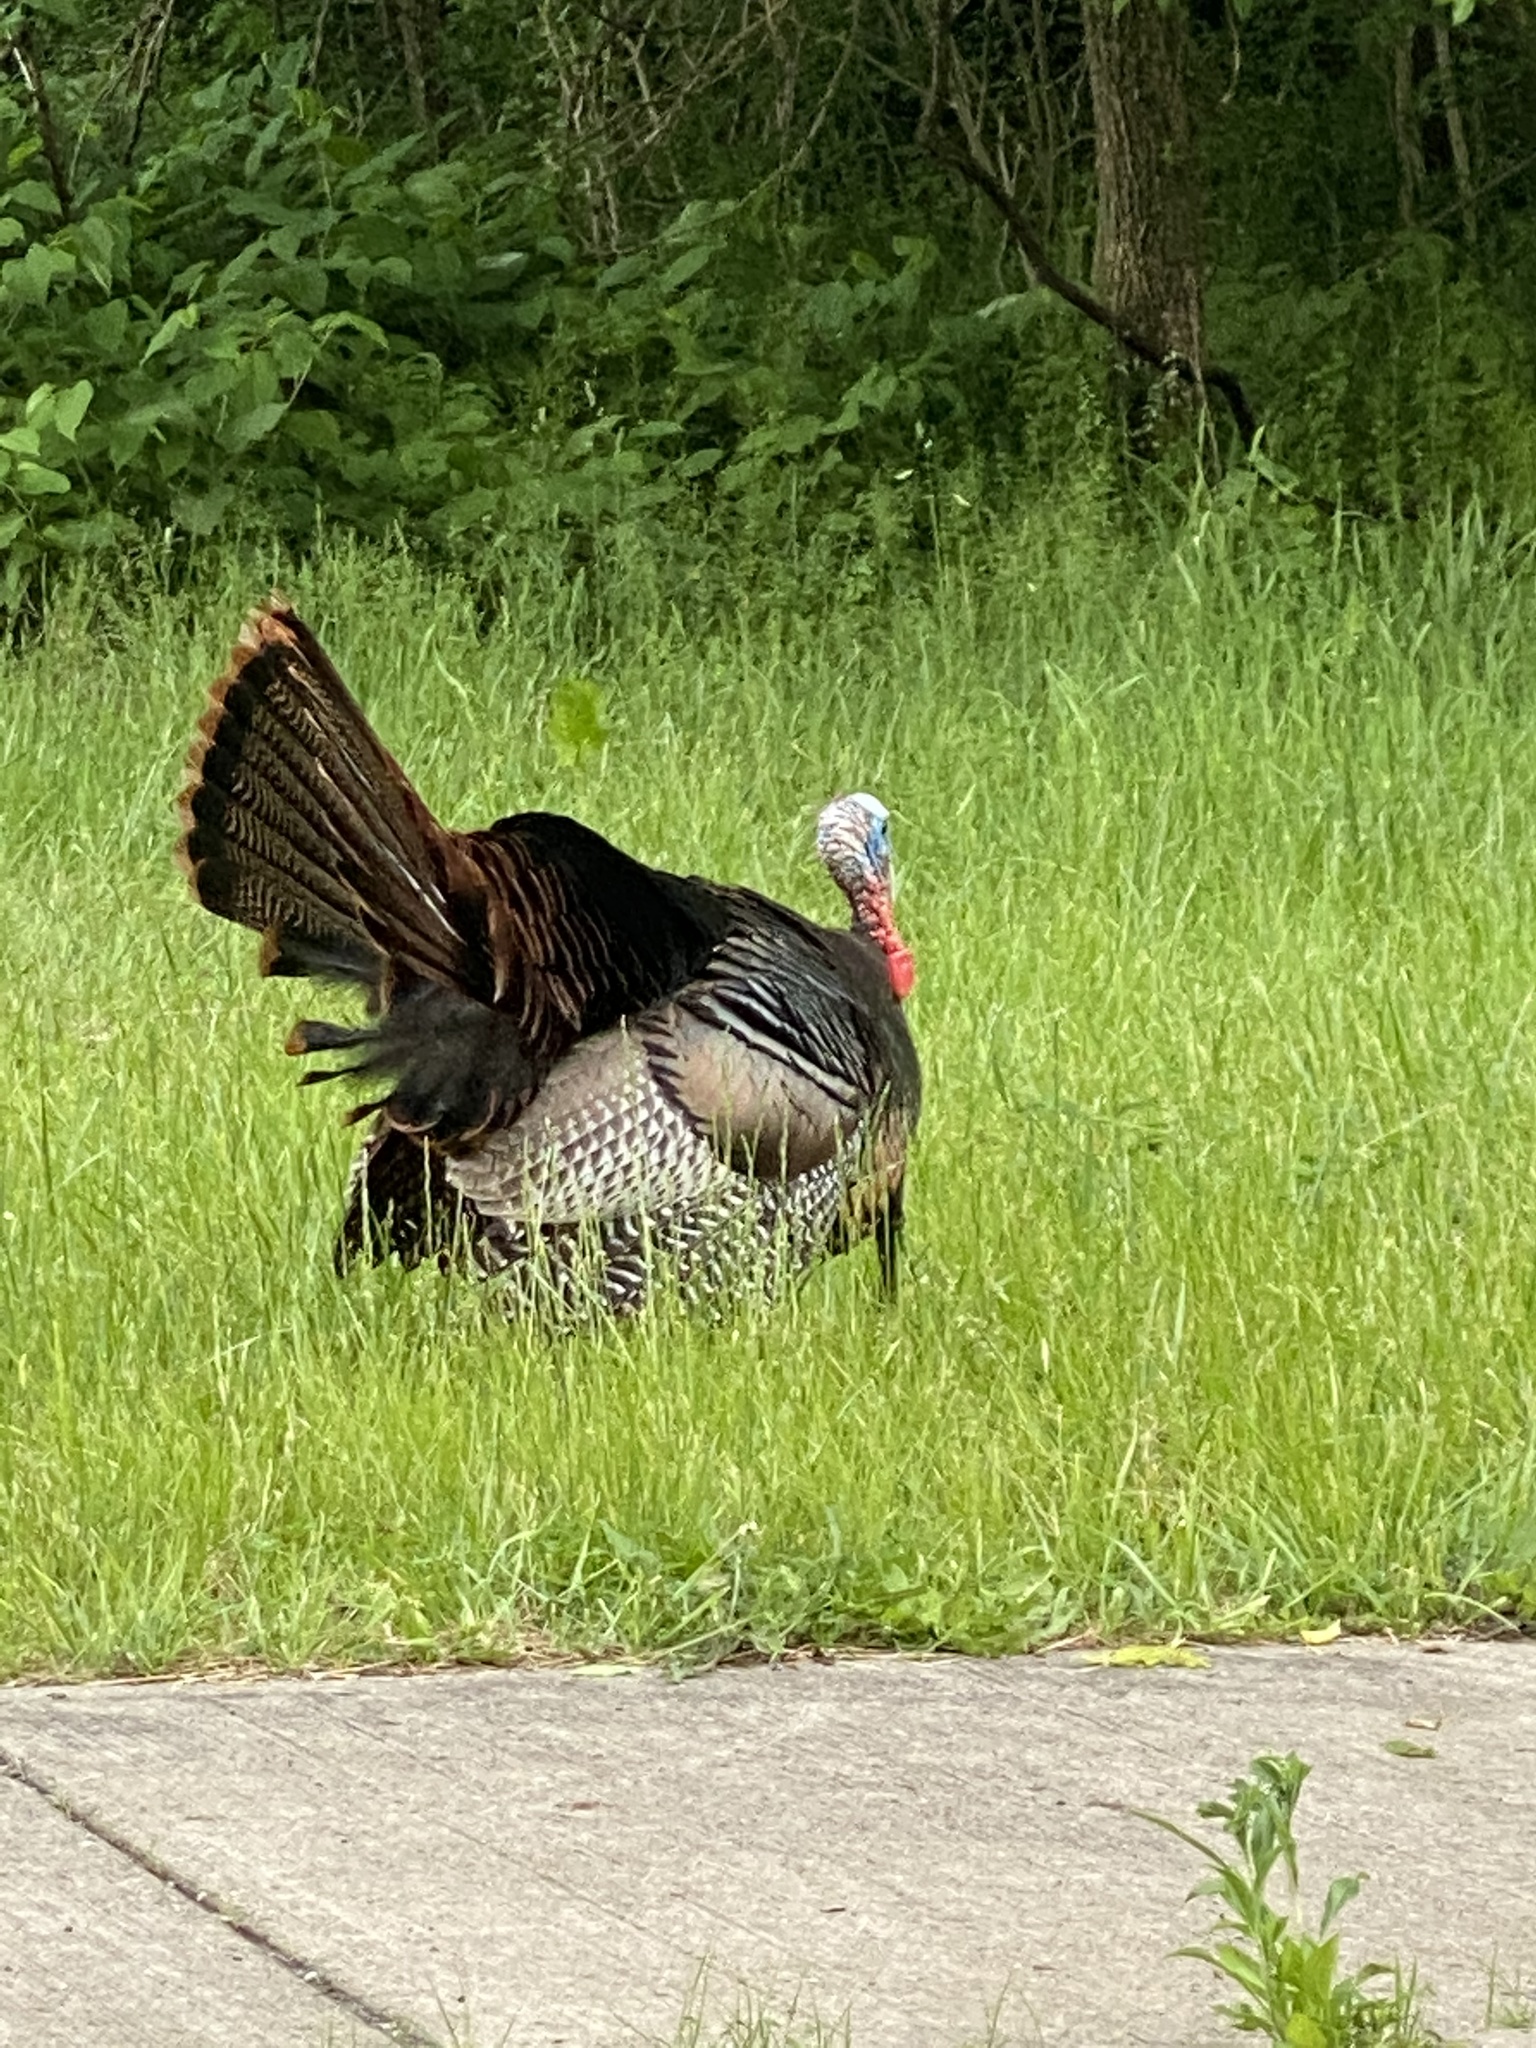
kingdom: Animalia
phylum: Chordata
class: Aves
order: Galliformes
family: Phasianidae
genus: Meleagris
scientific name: Meleagris gallopavo
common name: Wild turkey
